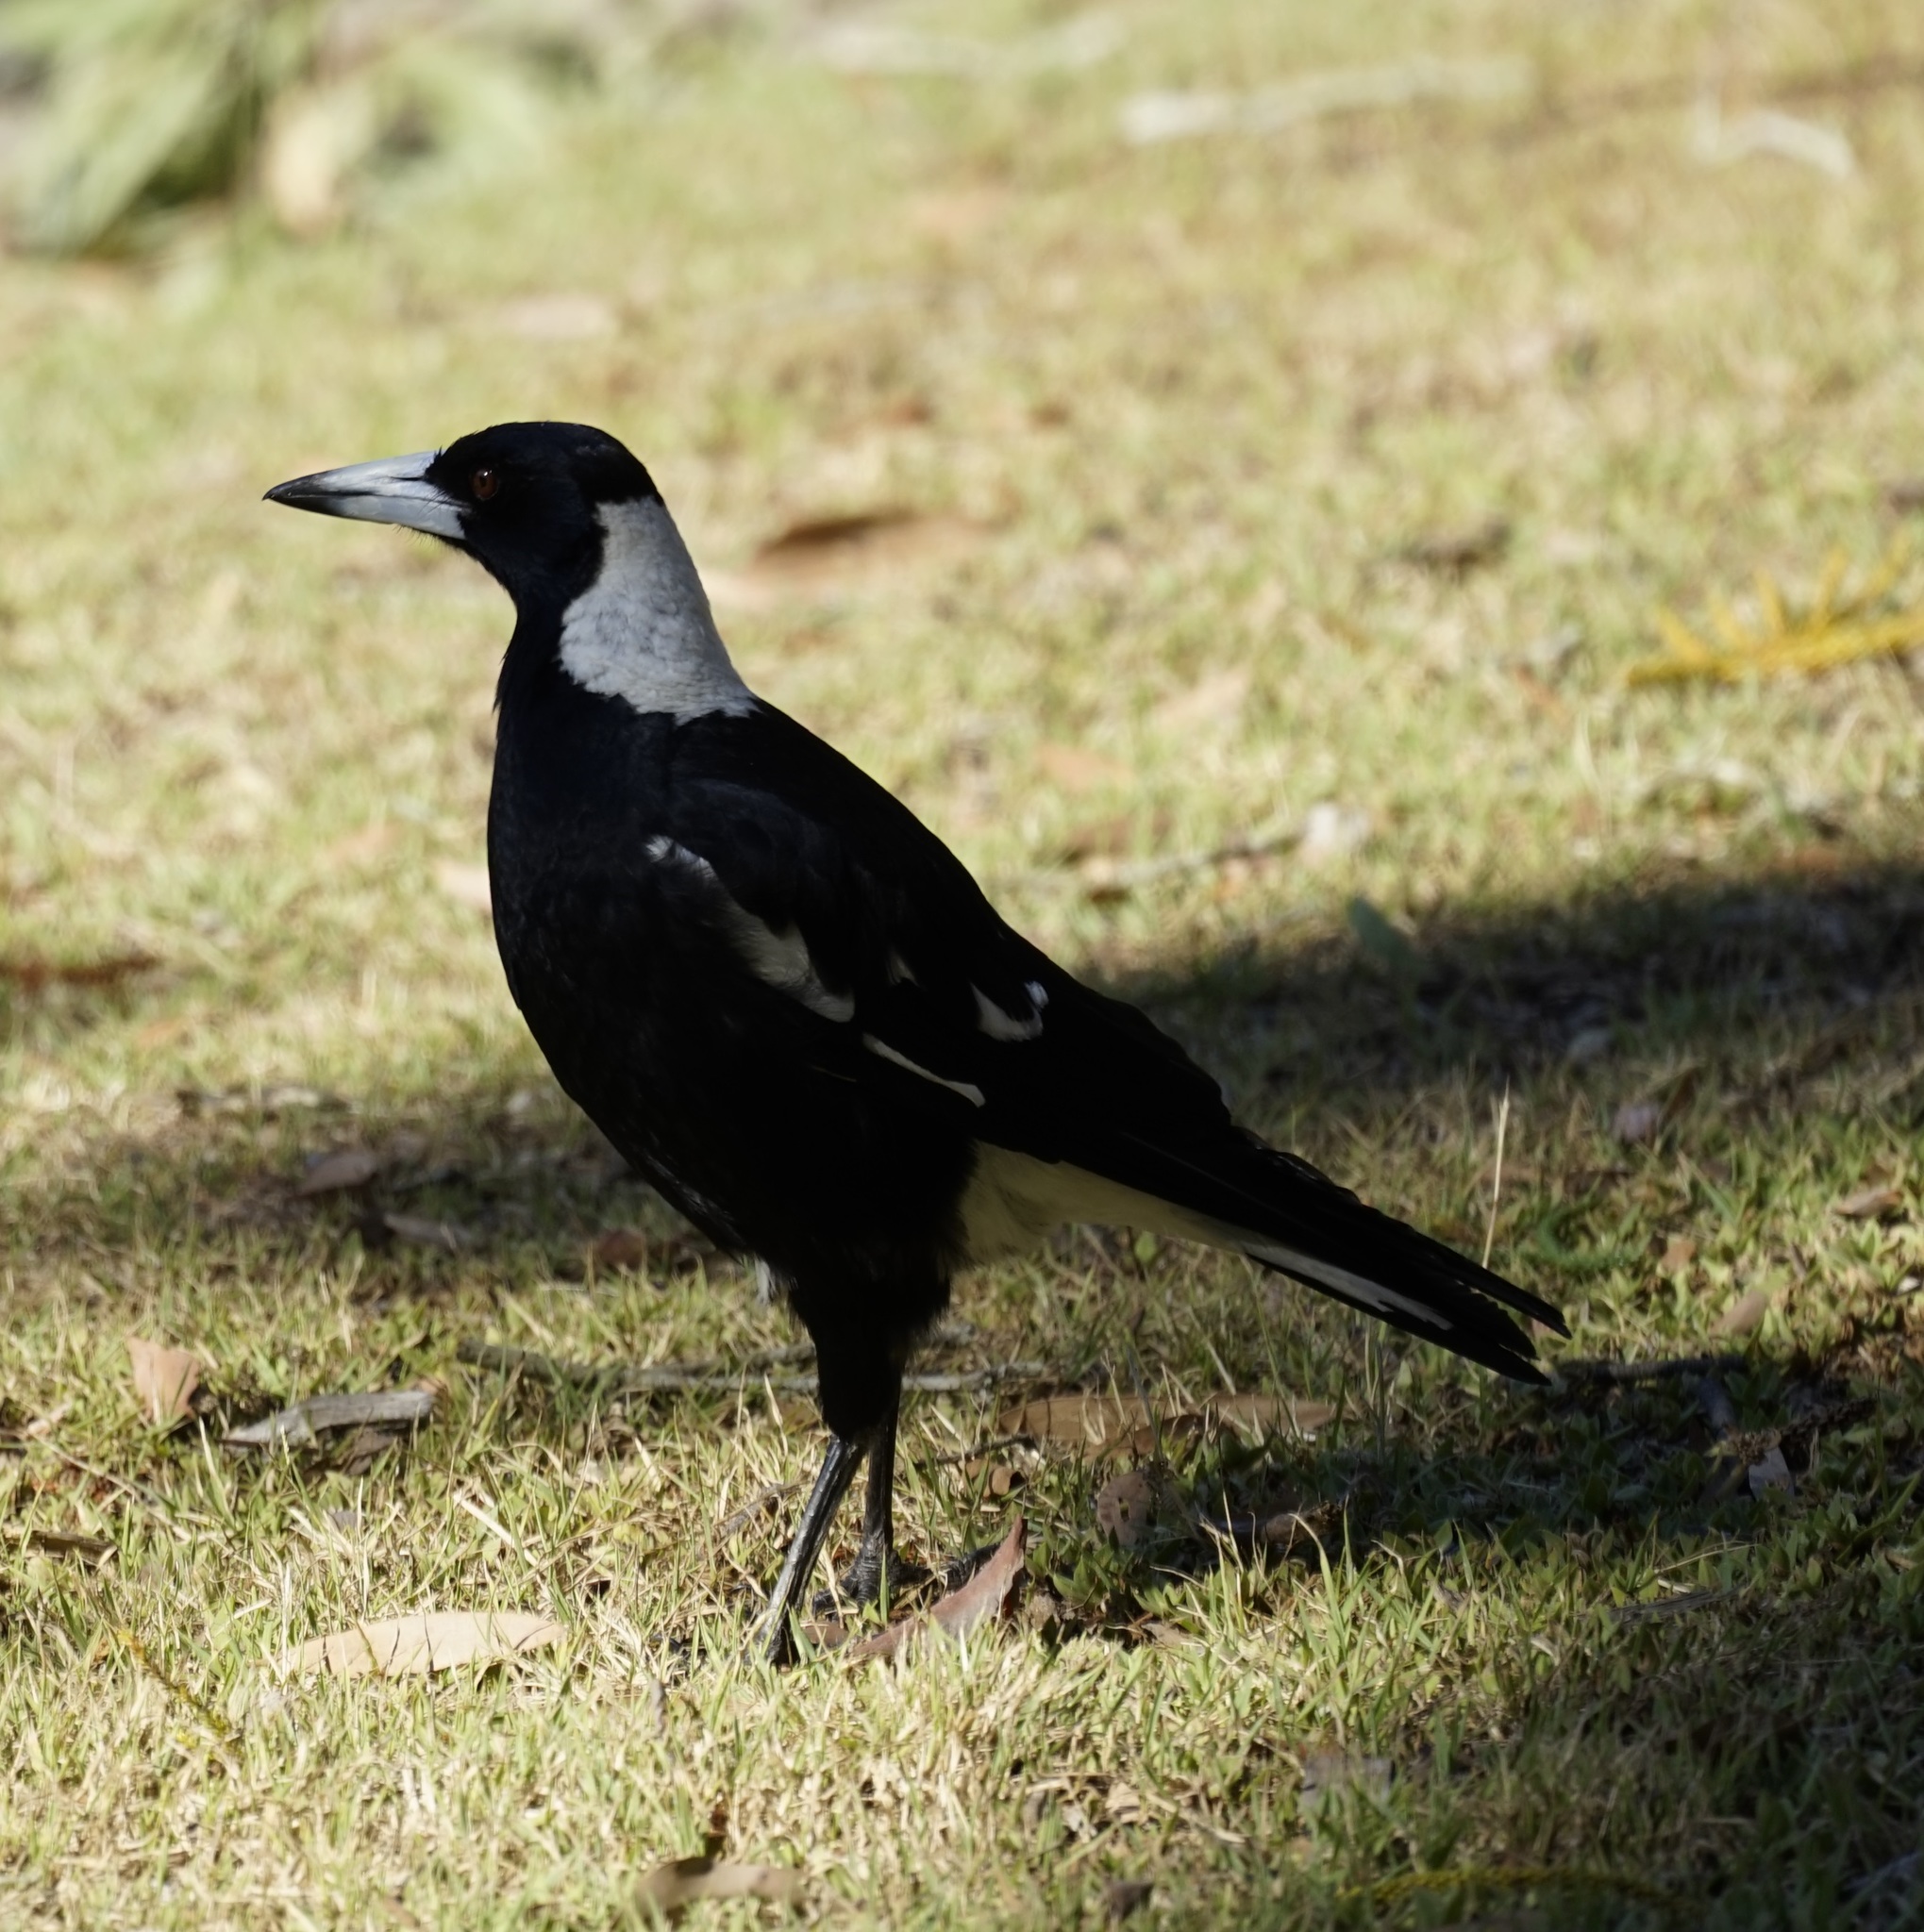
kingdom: Animalia
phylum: Chordata
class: Aves
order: Passeriformes
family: Cracticidae
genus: Gymnorhina
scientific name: Gymnorhina tibicen
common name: Australian magpie
